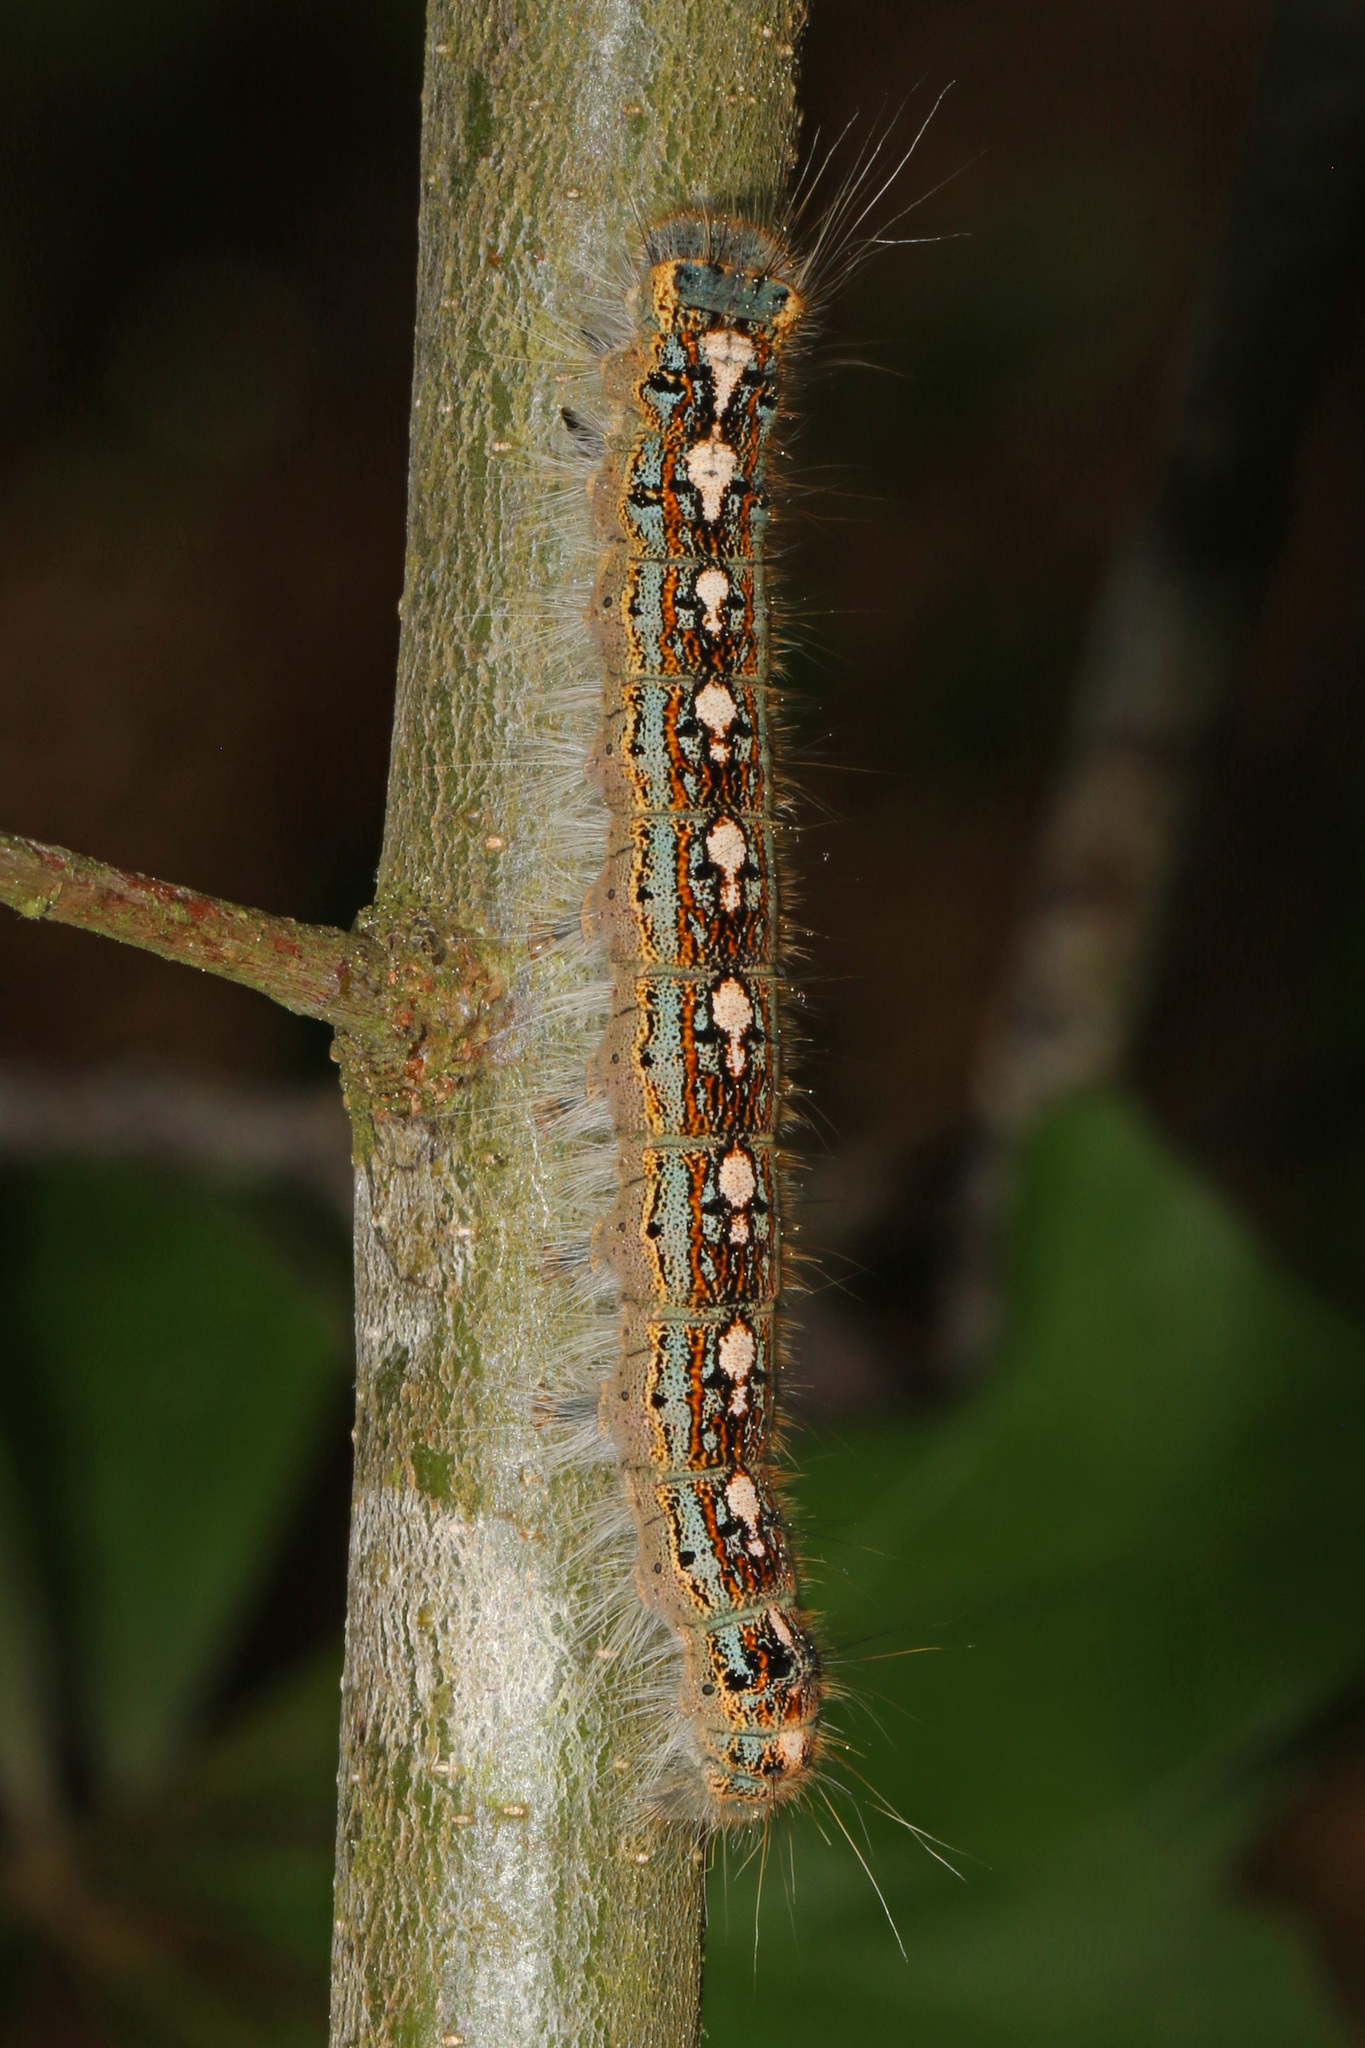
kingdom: Animalia
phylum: Arthropoda
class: Insecta
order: Lepidoptera
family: Lasiocampidae
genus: Malacosoma
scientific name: Malacosoma disstria
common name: Forest tent caterpillar
